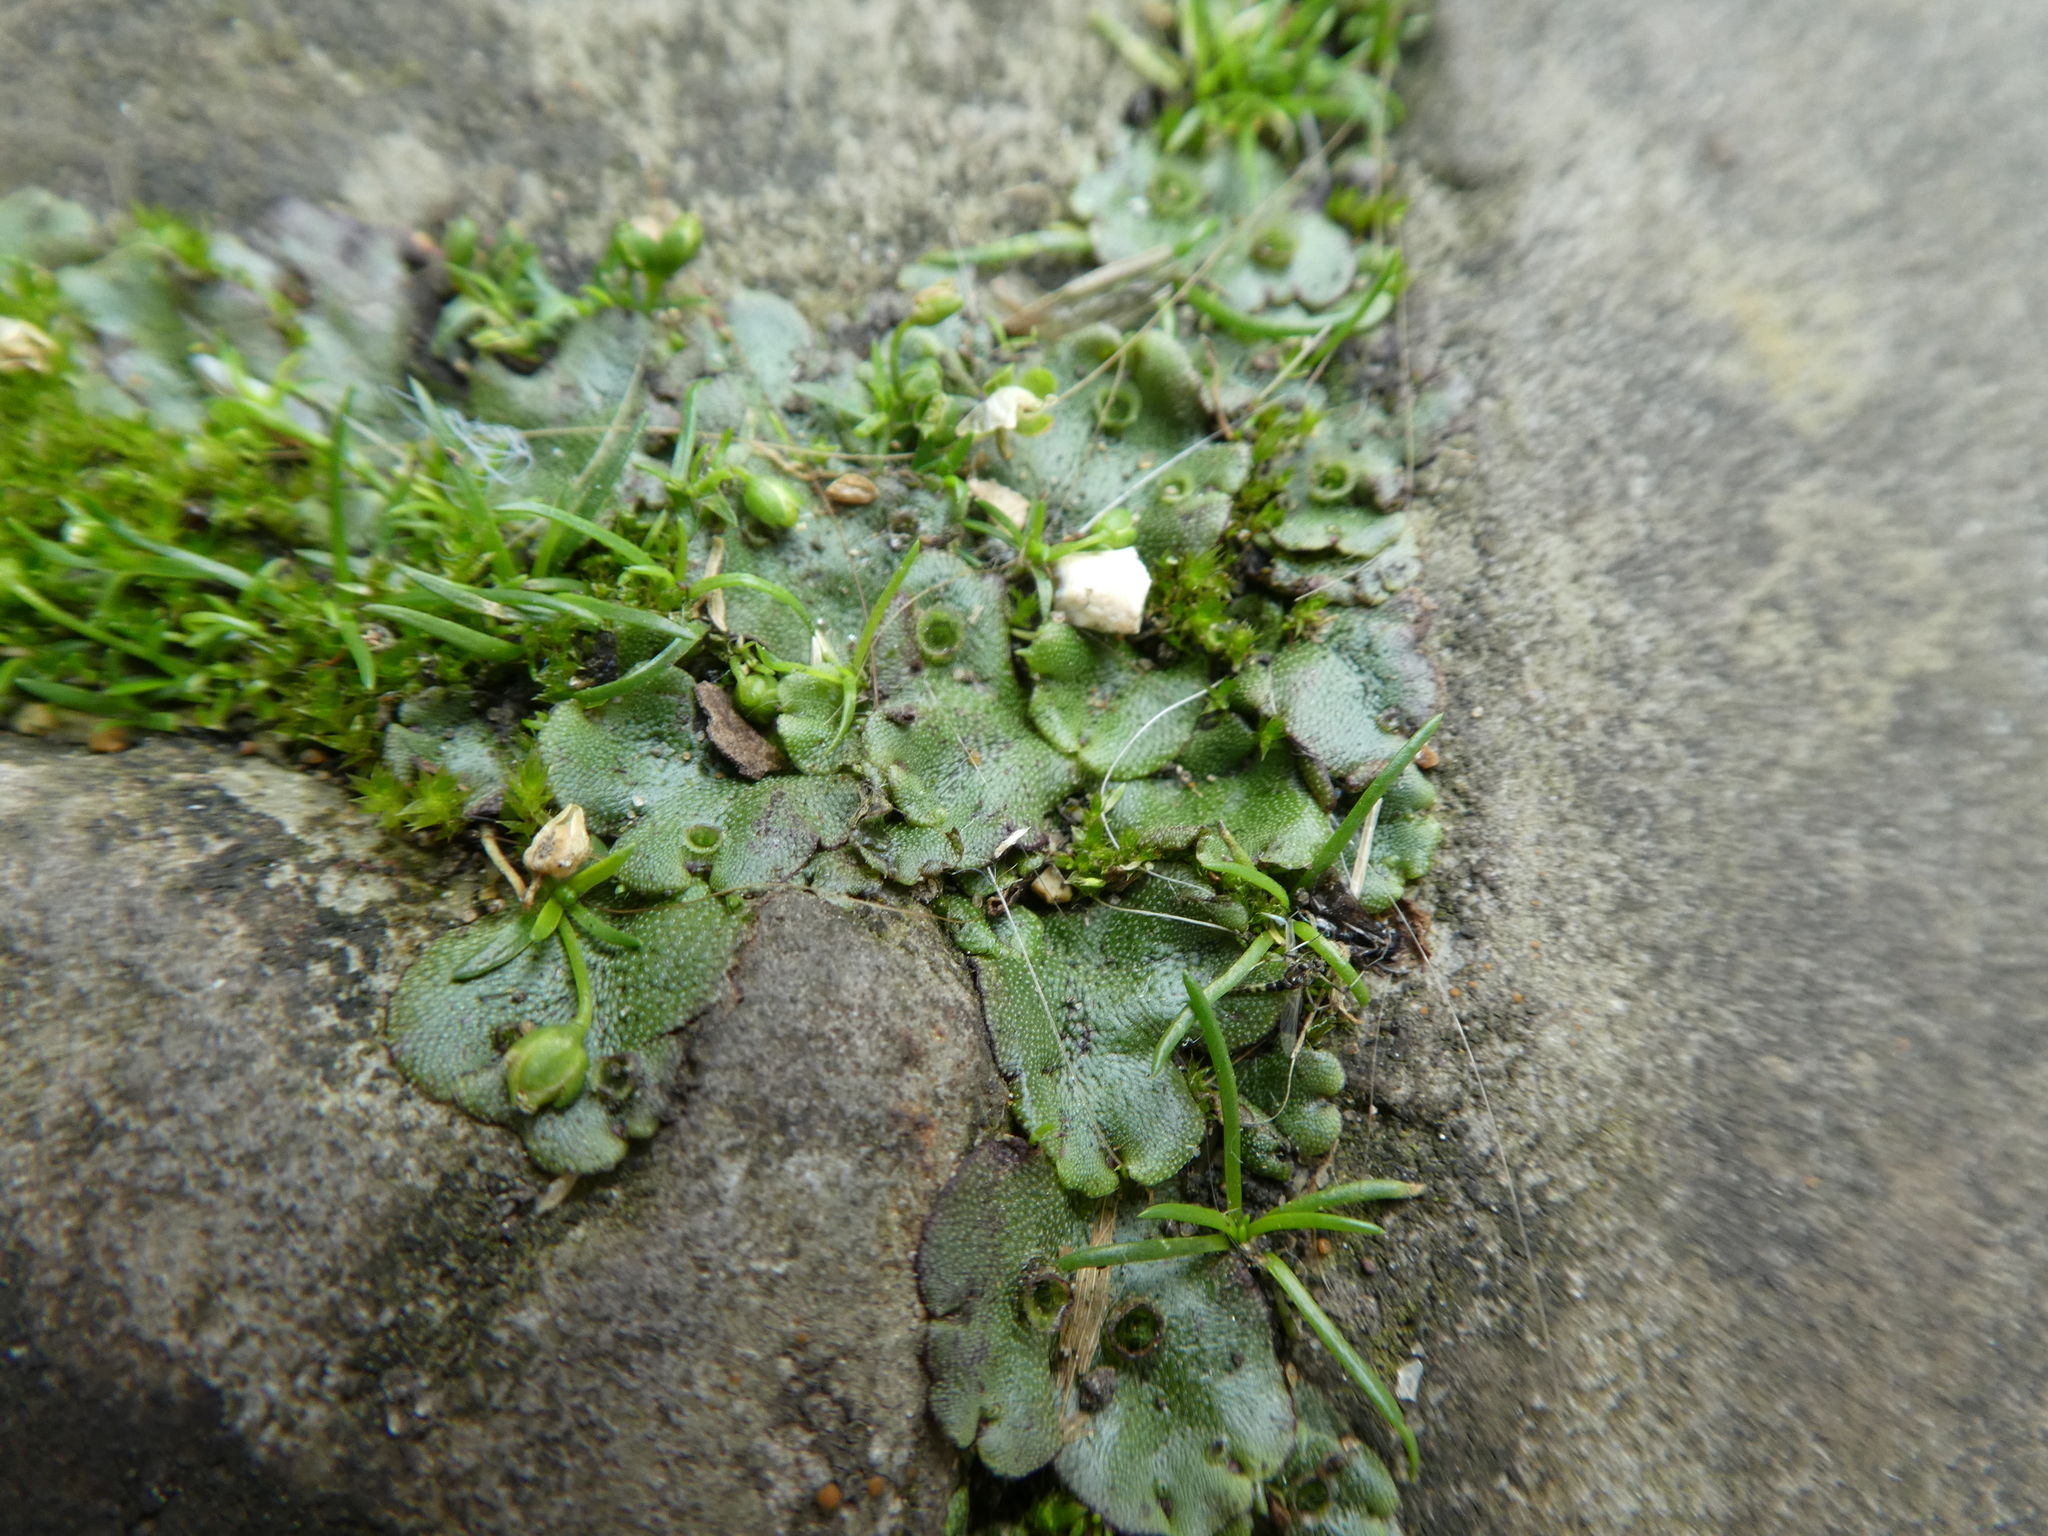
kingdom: Plantae
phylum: Marchantiophyta
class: Marchantiopsida
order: Marchantiales
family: Marchantiaceae
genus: Marchantia
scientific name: Marchantia polymorpha
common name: Common liverwort
